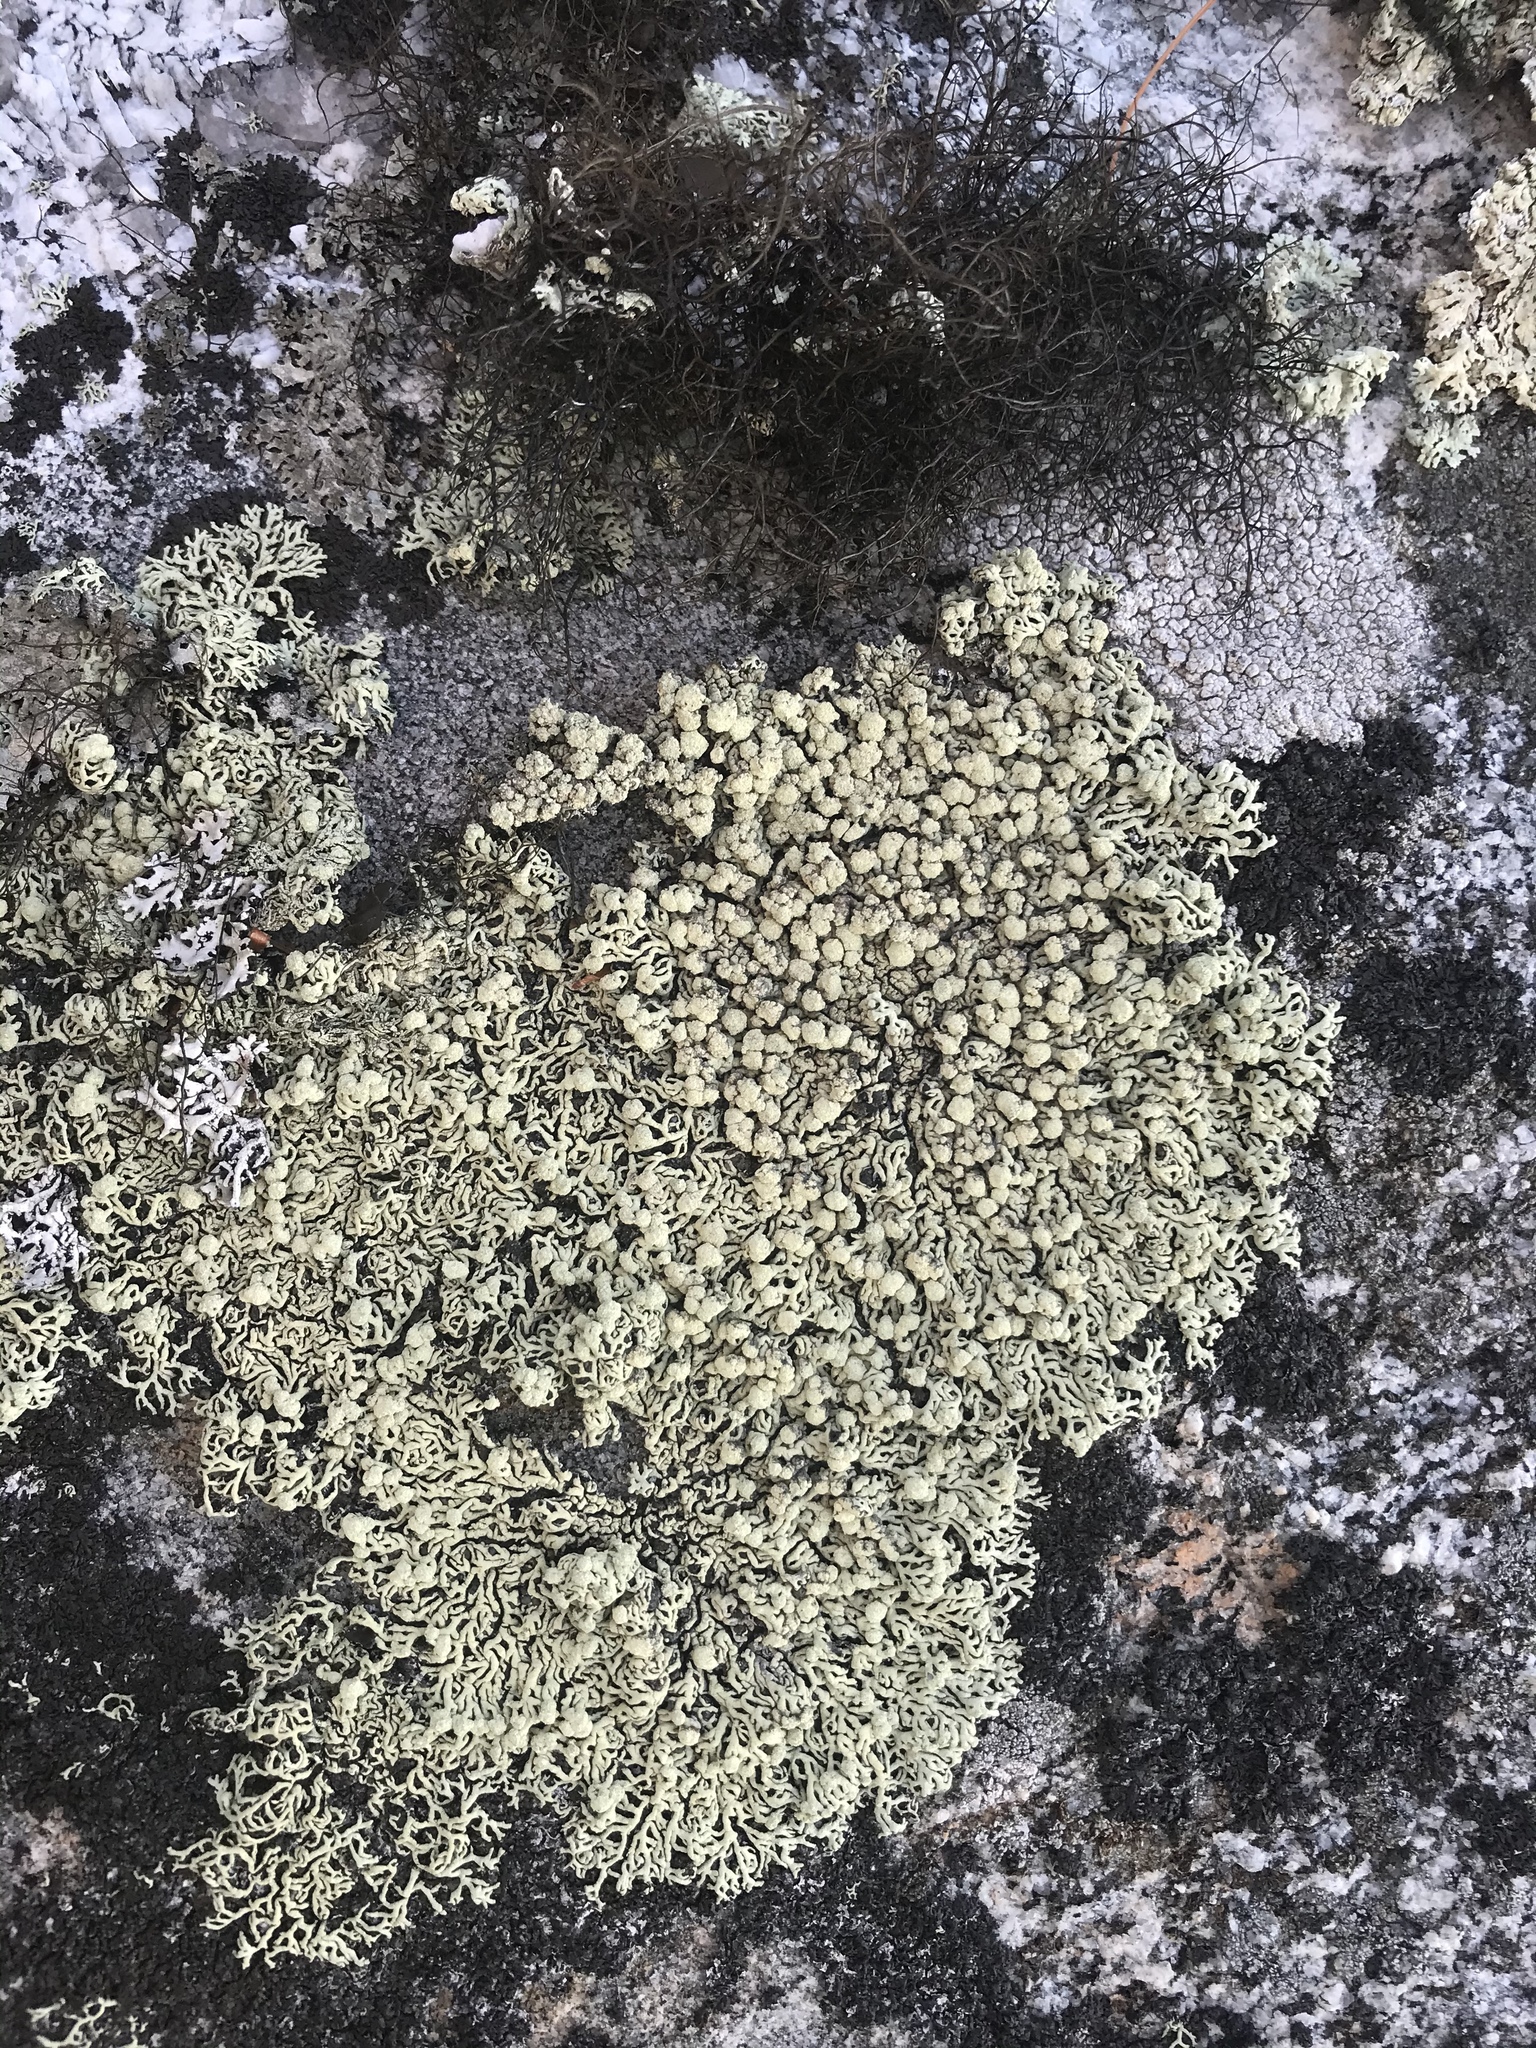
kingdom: Fungi
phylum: Ascomycota
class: Lecanoromycetes
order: Lecanorales
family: Parmeliaceae
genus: Arctoparmelia
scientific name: Arctoparmelia incurva
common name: Bent ring lichen
